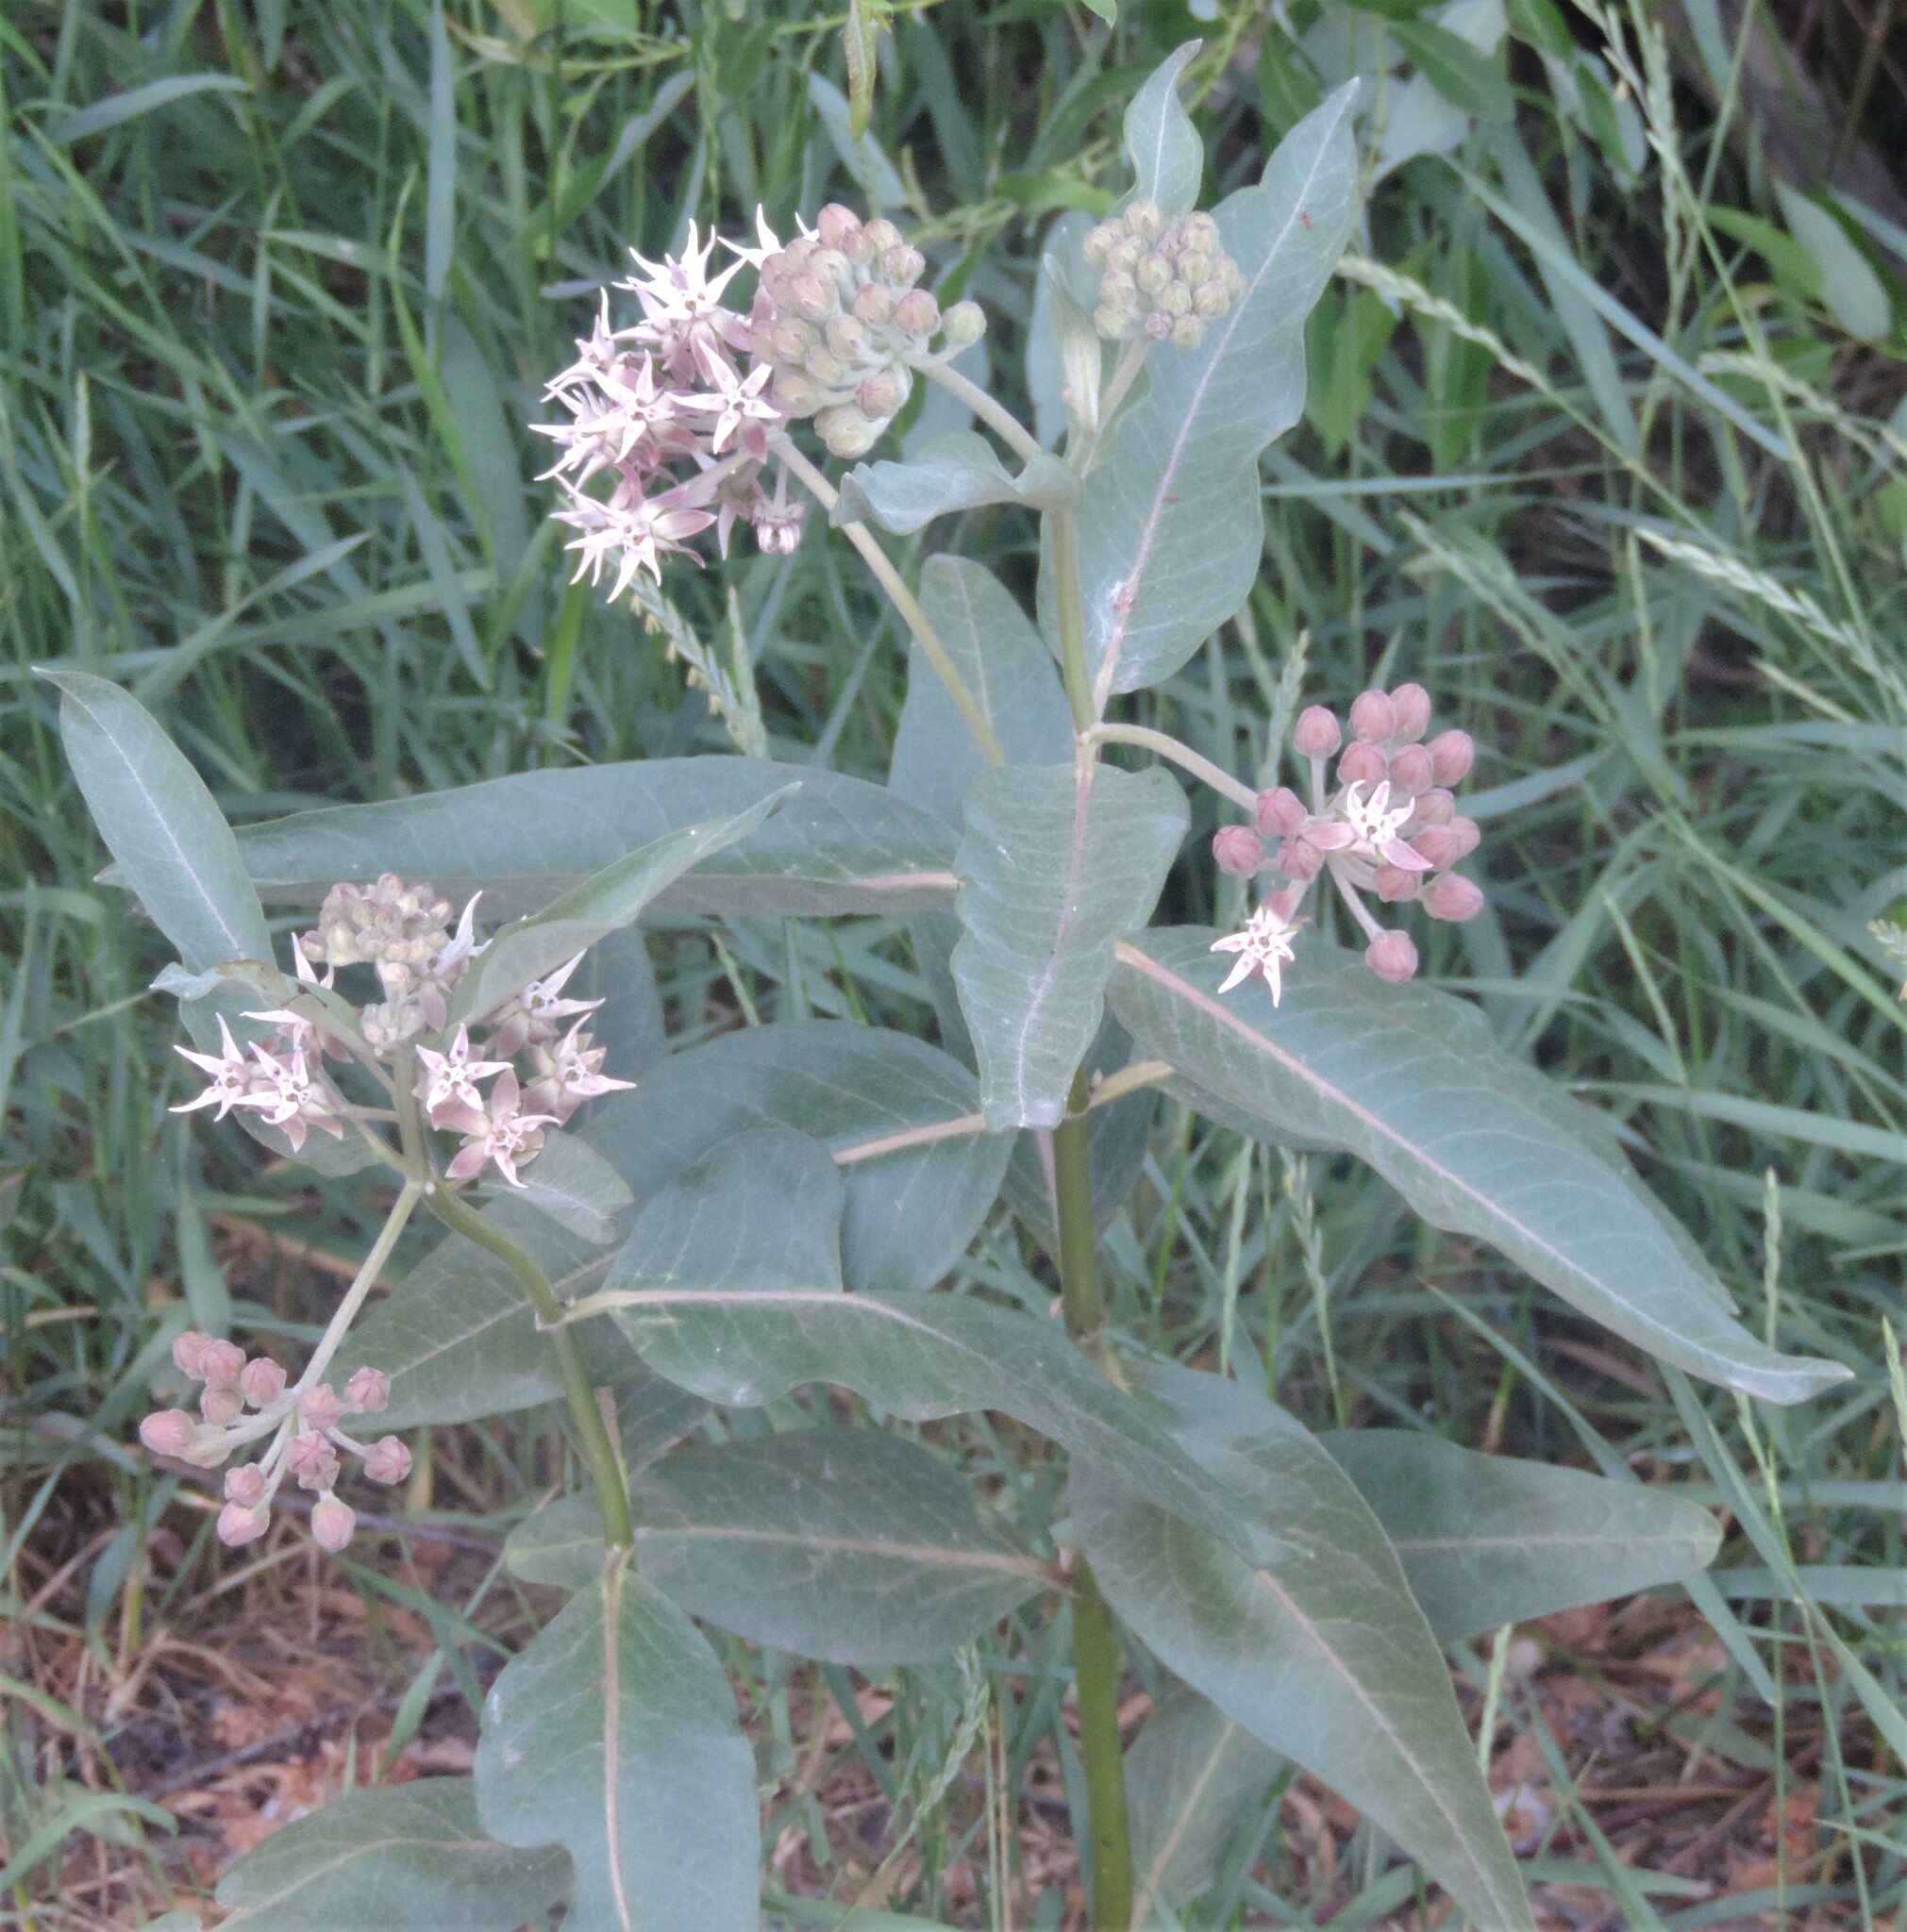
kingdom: Plantae
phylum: Tracheophyta
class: Magnoliopsida
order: Gentianales
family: Apocynaceae
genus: Asclepias
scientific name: Asclepias speciosa
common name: Showy milkweed
